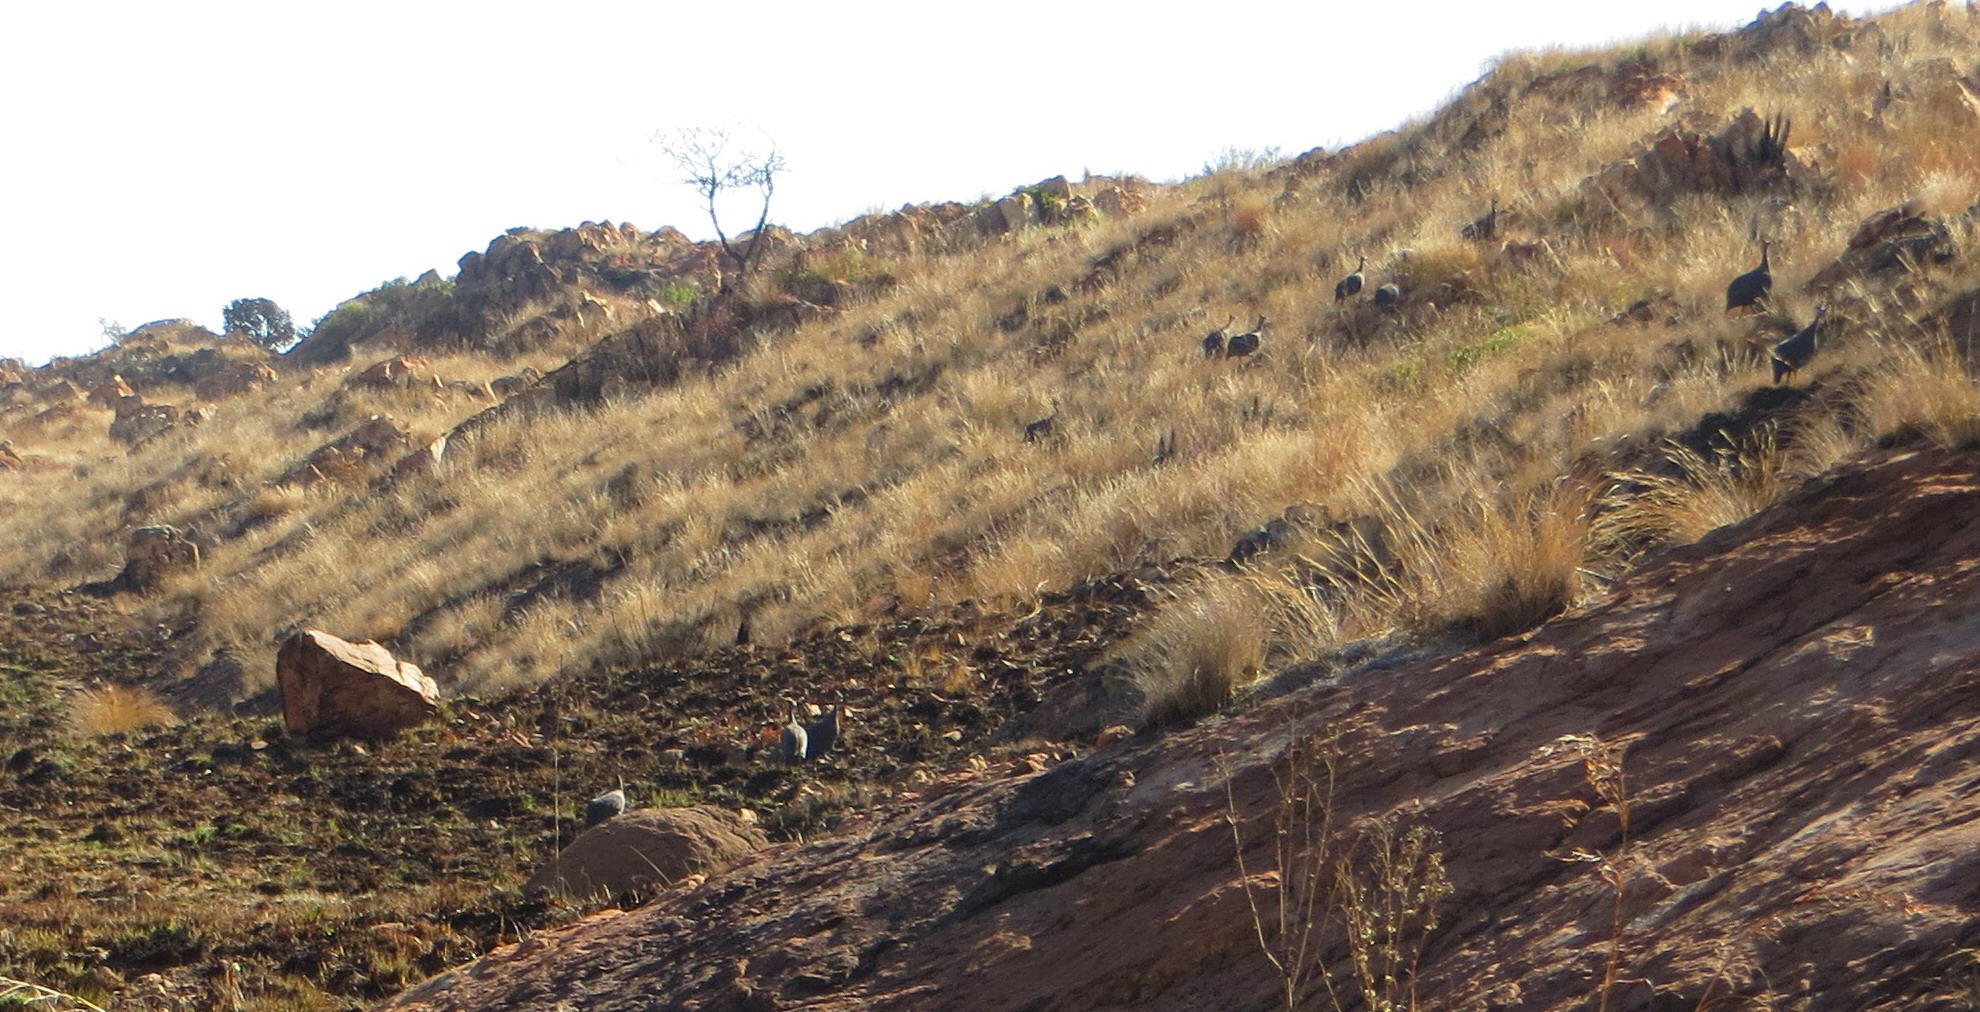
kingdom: Animalia
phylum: Chordata
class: Aves
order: Galliformes
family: Numididae
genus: Numida
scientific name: Numida meleagris
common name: Helmeted guineafowl
